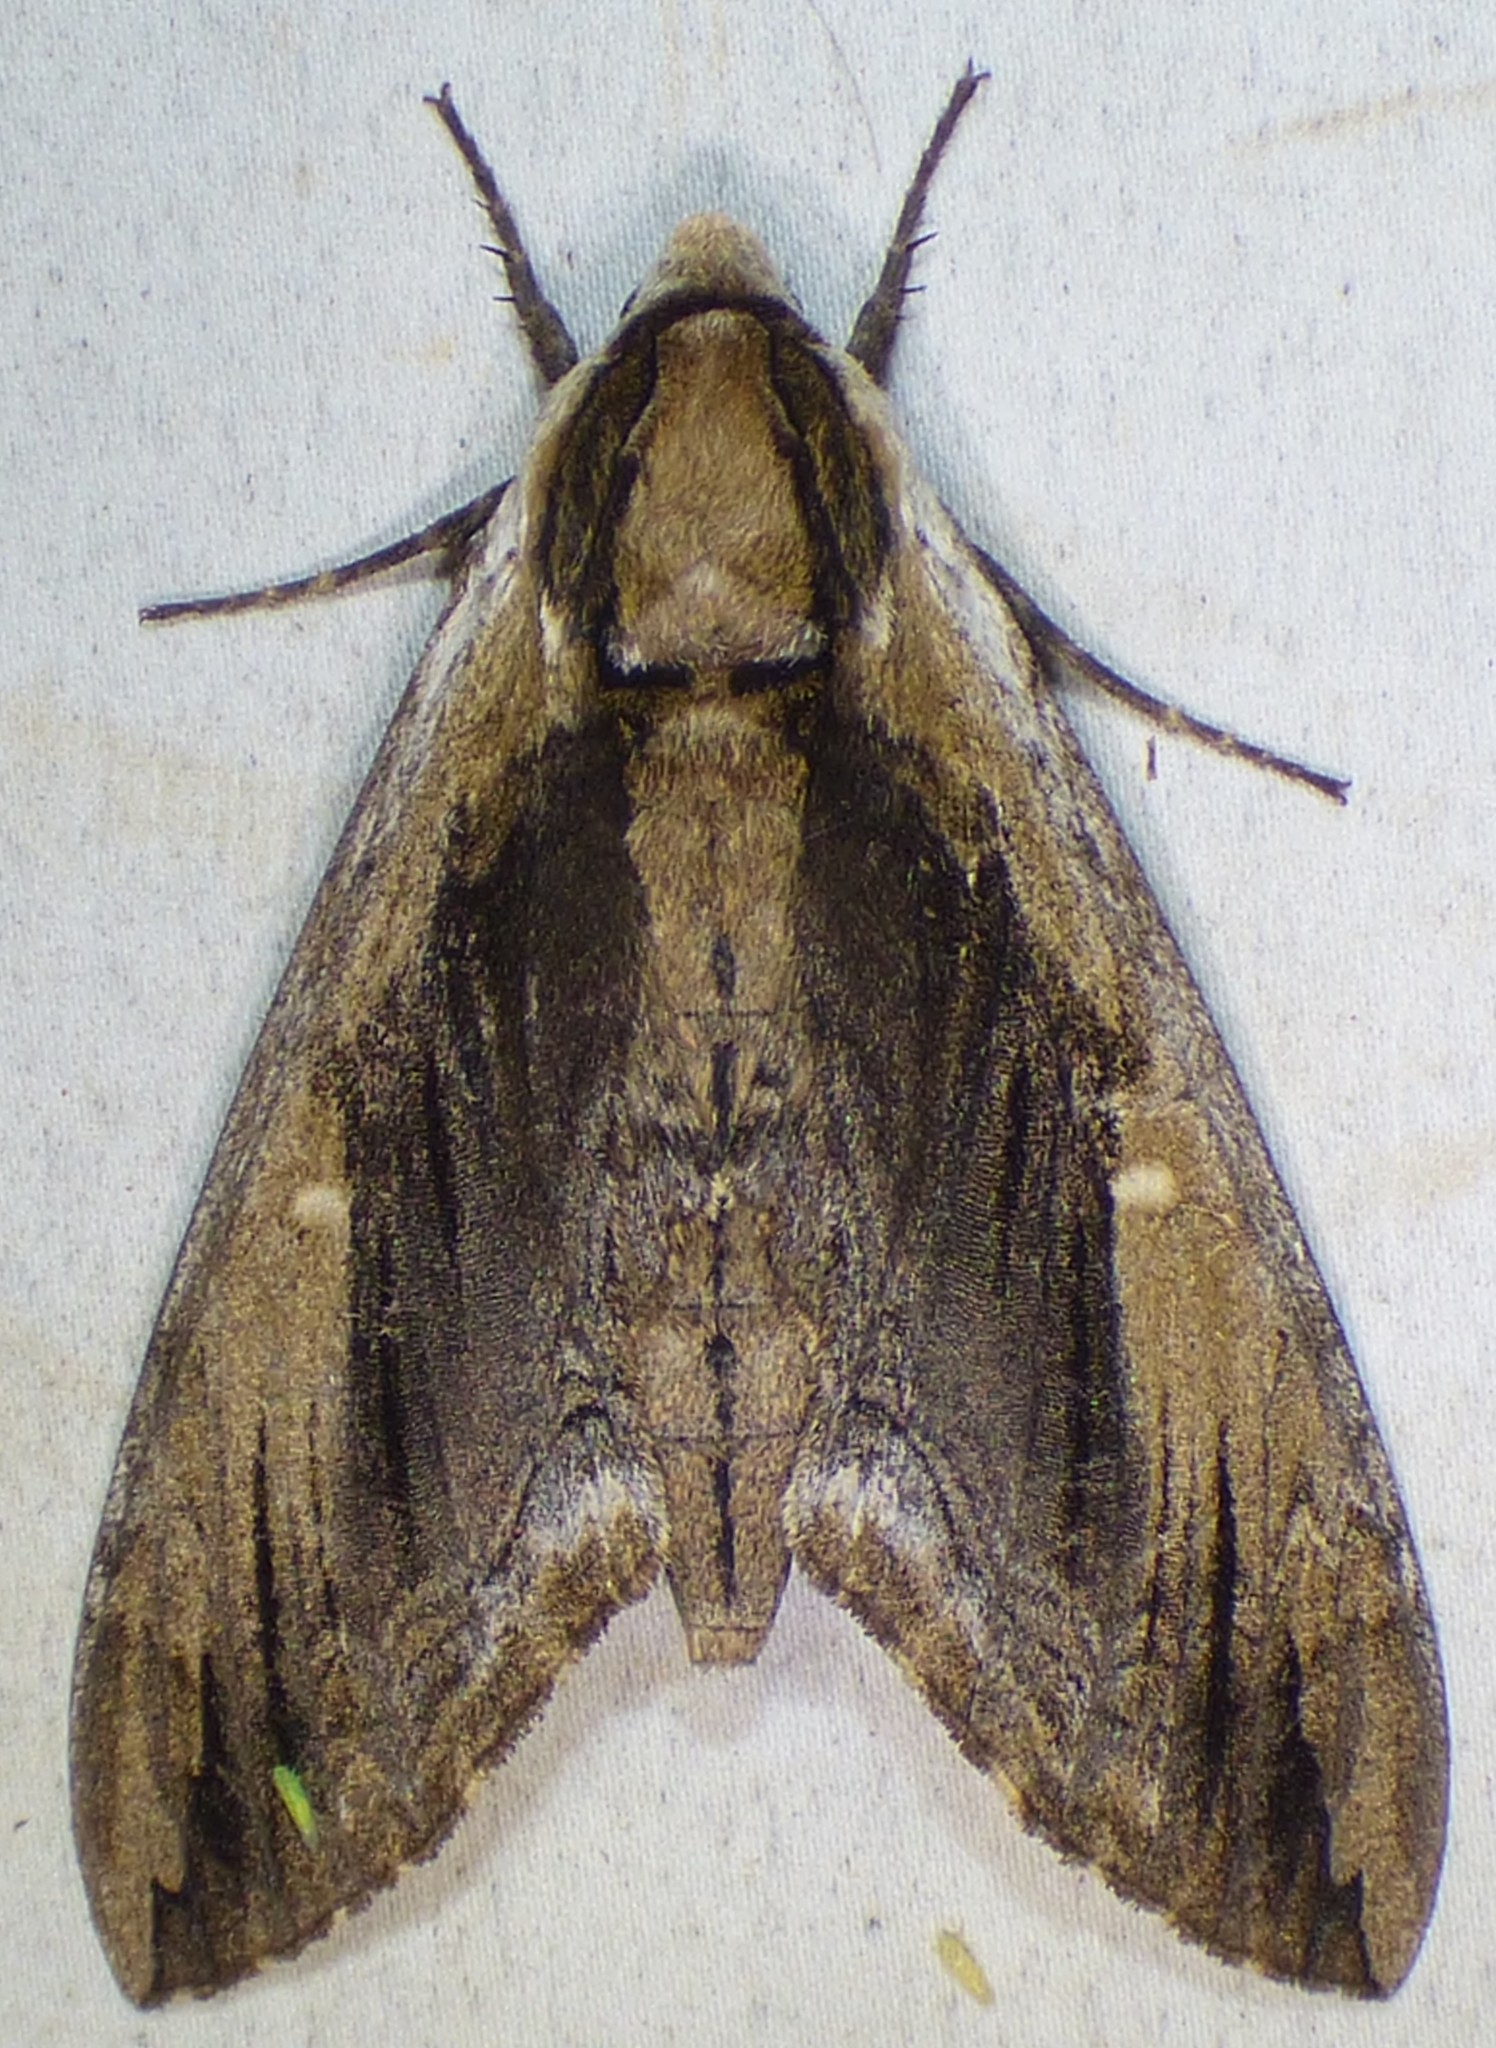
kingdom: Animalia
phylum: Arthropoda
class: Insecta
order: Lepidoptera
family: Sphingidae
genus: Ceratomia
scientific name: Ceratomia amyntor
